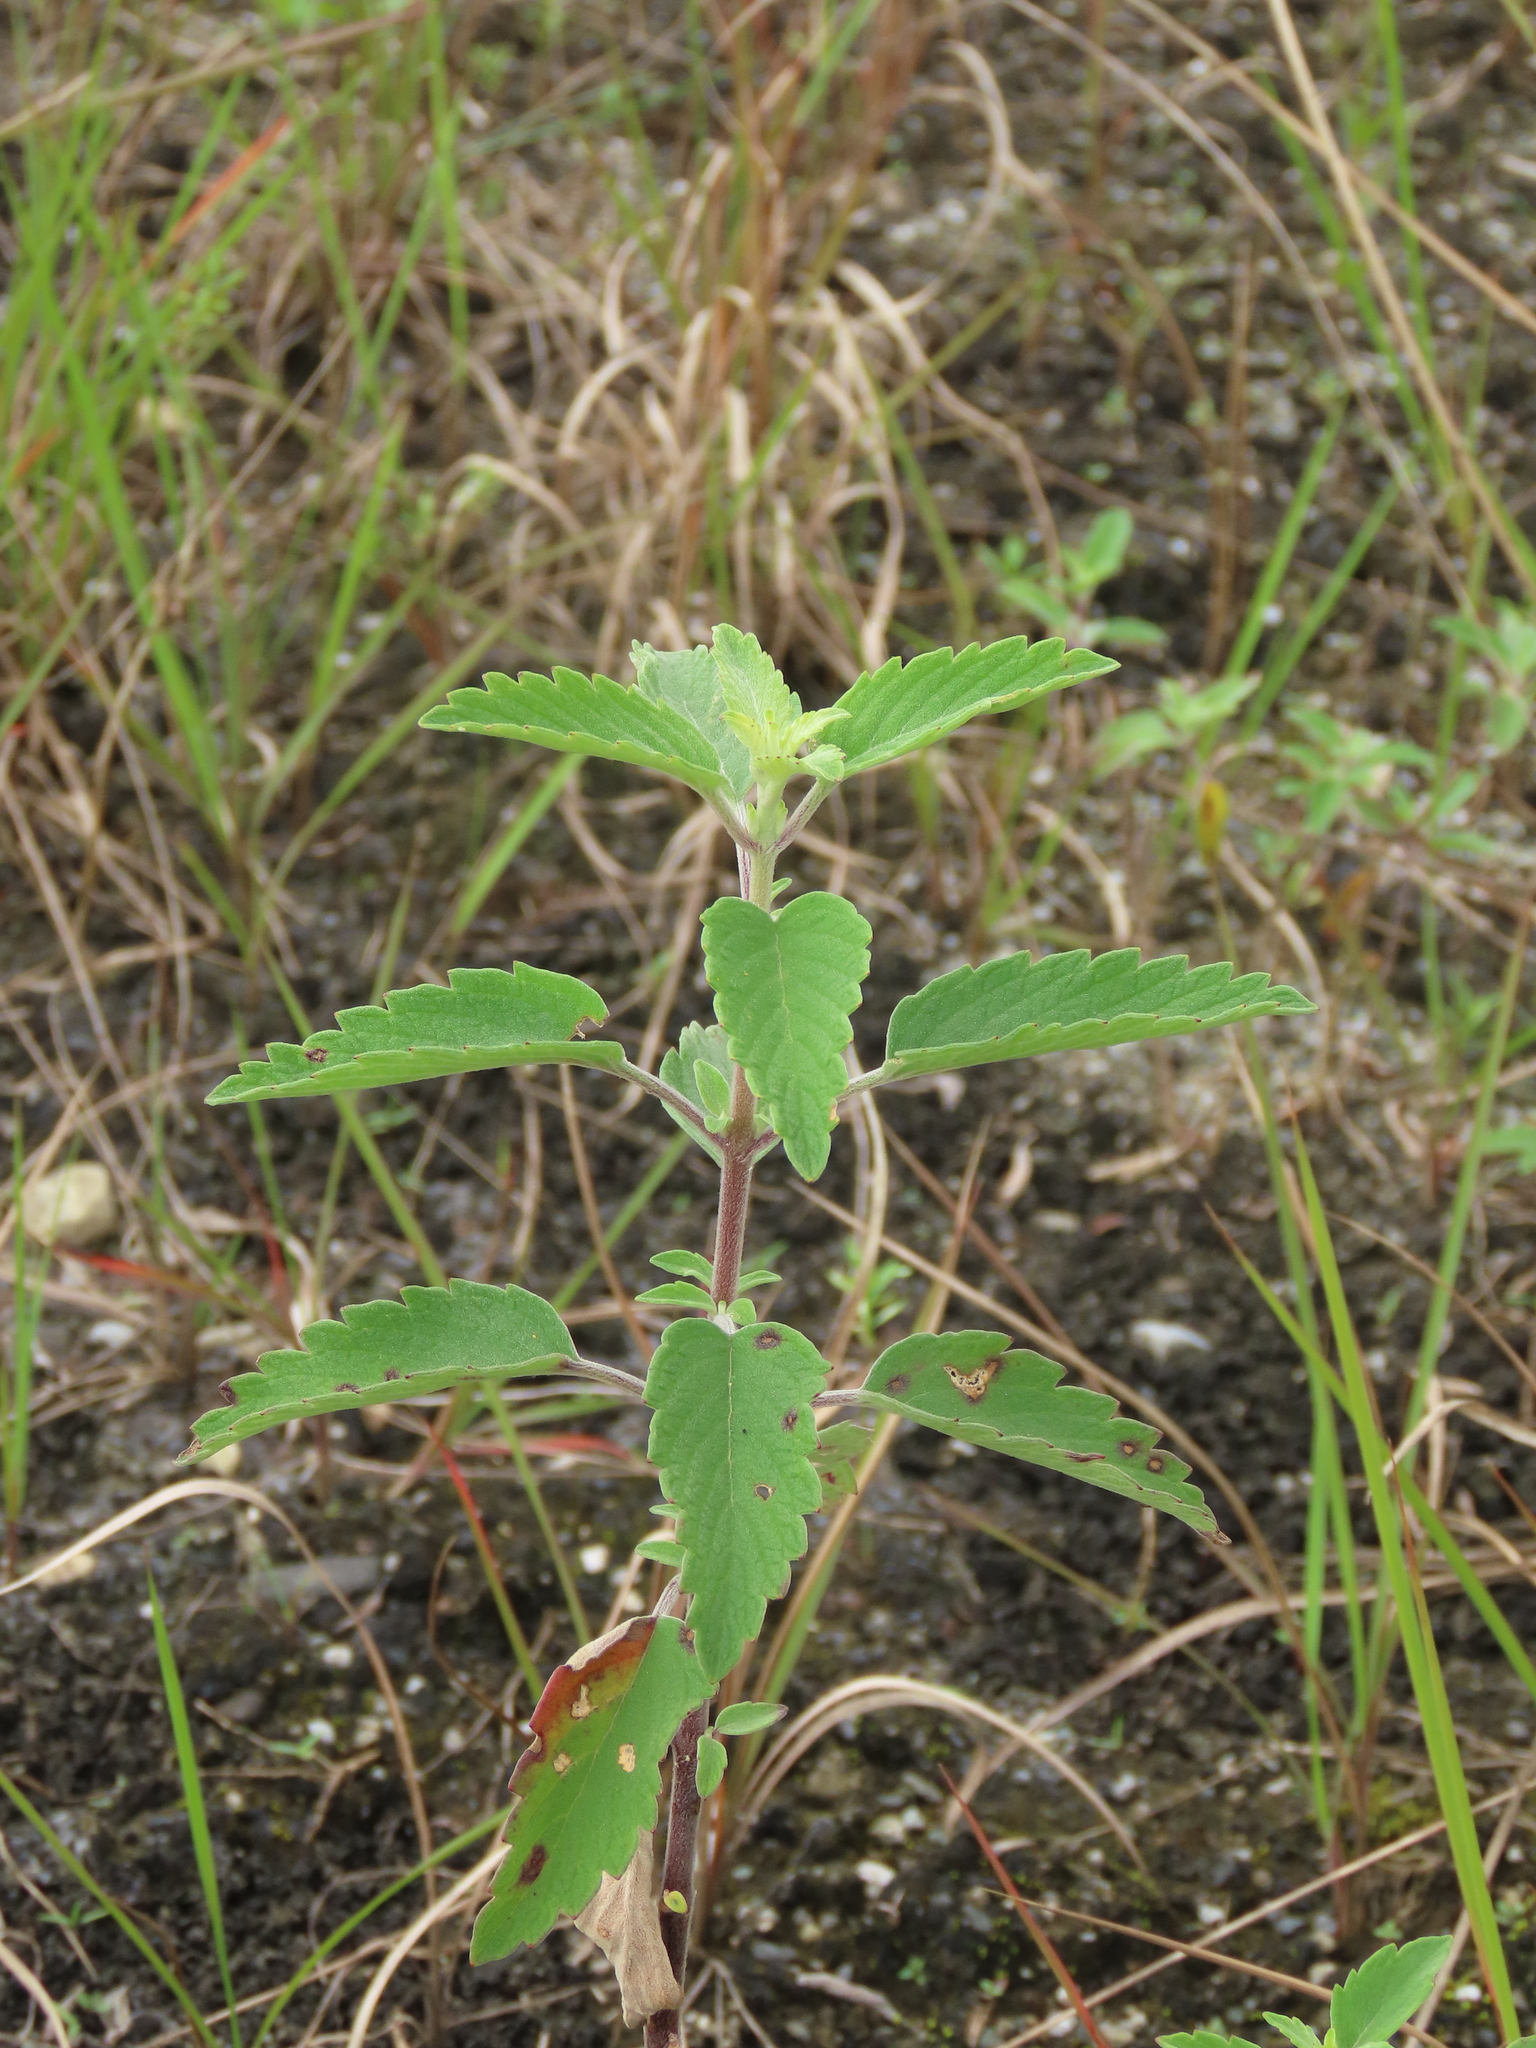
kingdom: Plantae
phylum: Tracheophyta
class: Magnoliopsida
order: Lamiales
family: Lamiaceae
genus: Caryopteris
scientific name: Caryopteris incana
